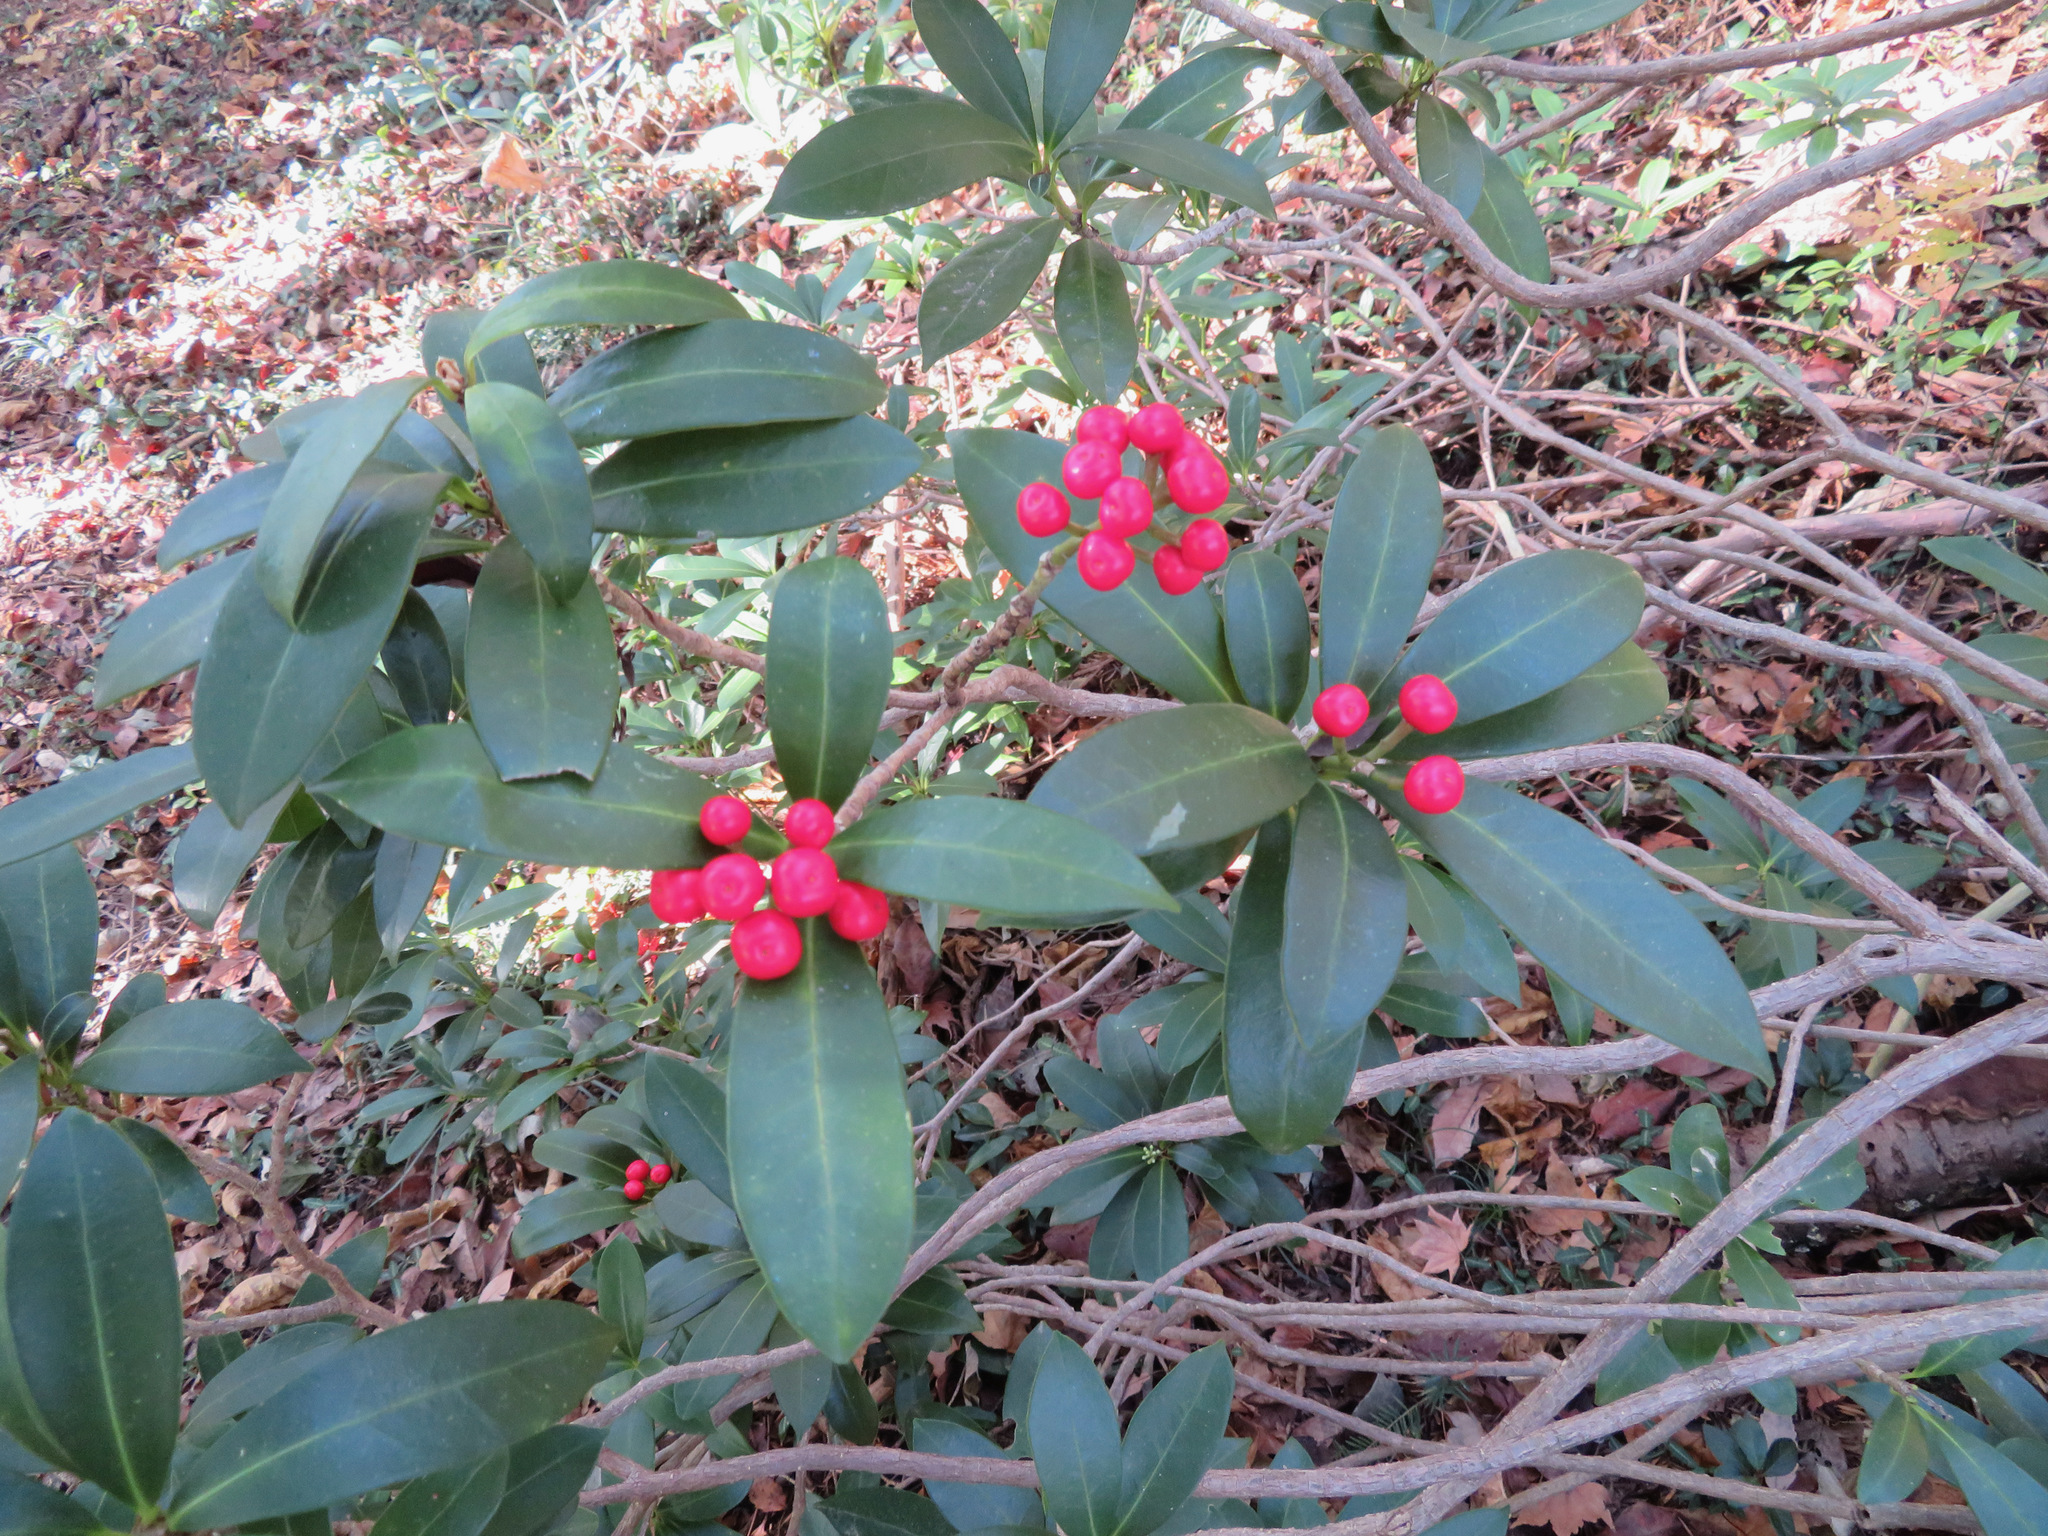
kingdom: Plantae
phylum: Tracheophyta
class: Magnoliopsida
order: Sapindales
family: Rutaceae
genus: Skimmia
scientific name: Skimmia japonica
